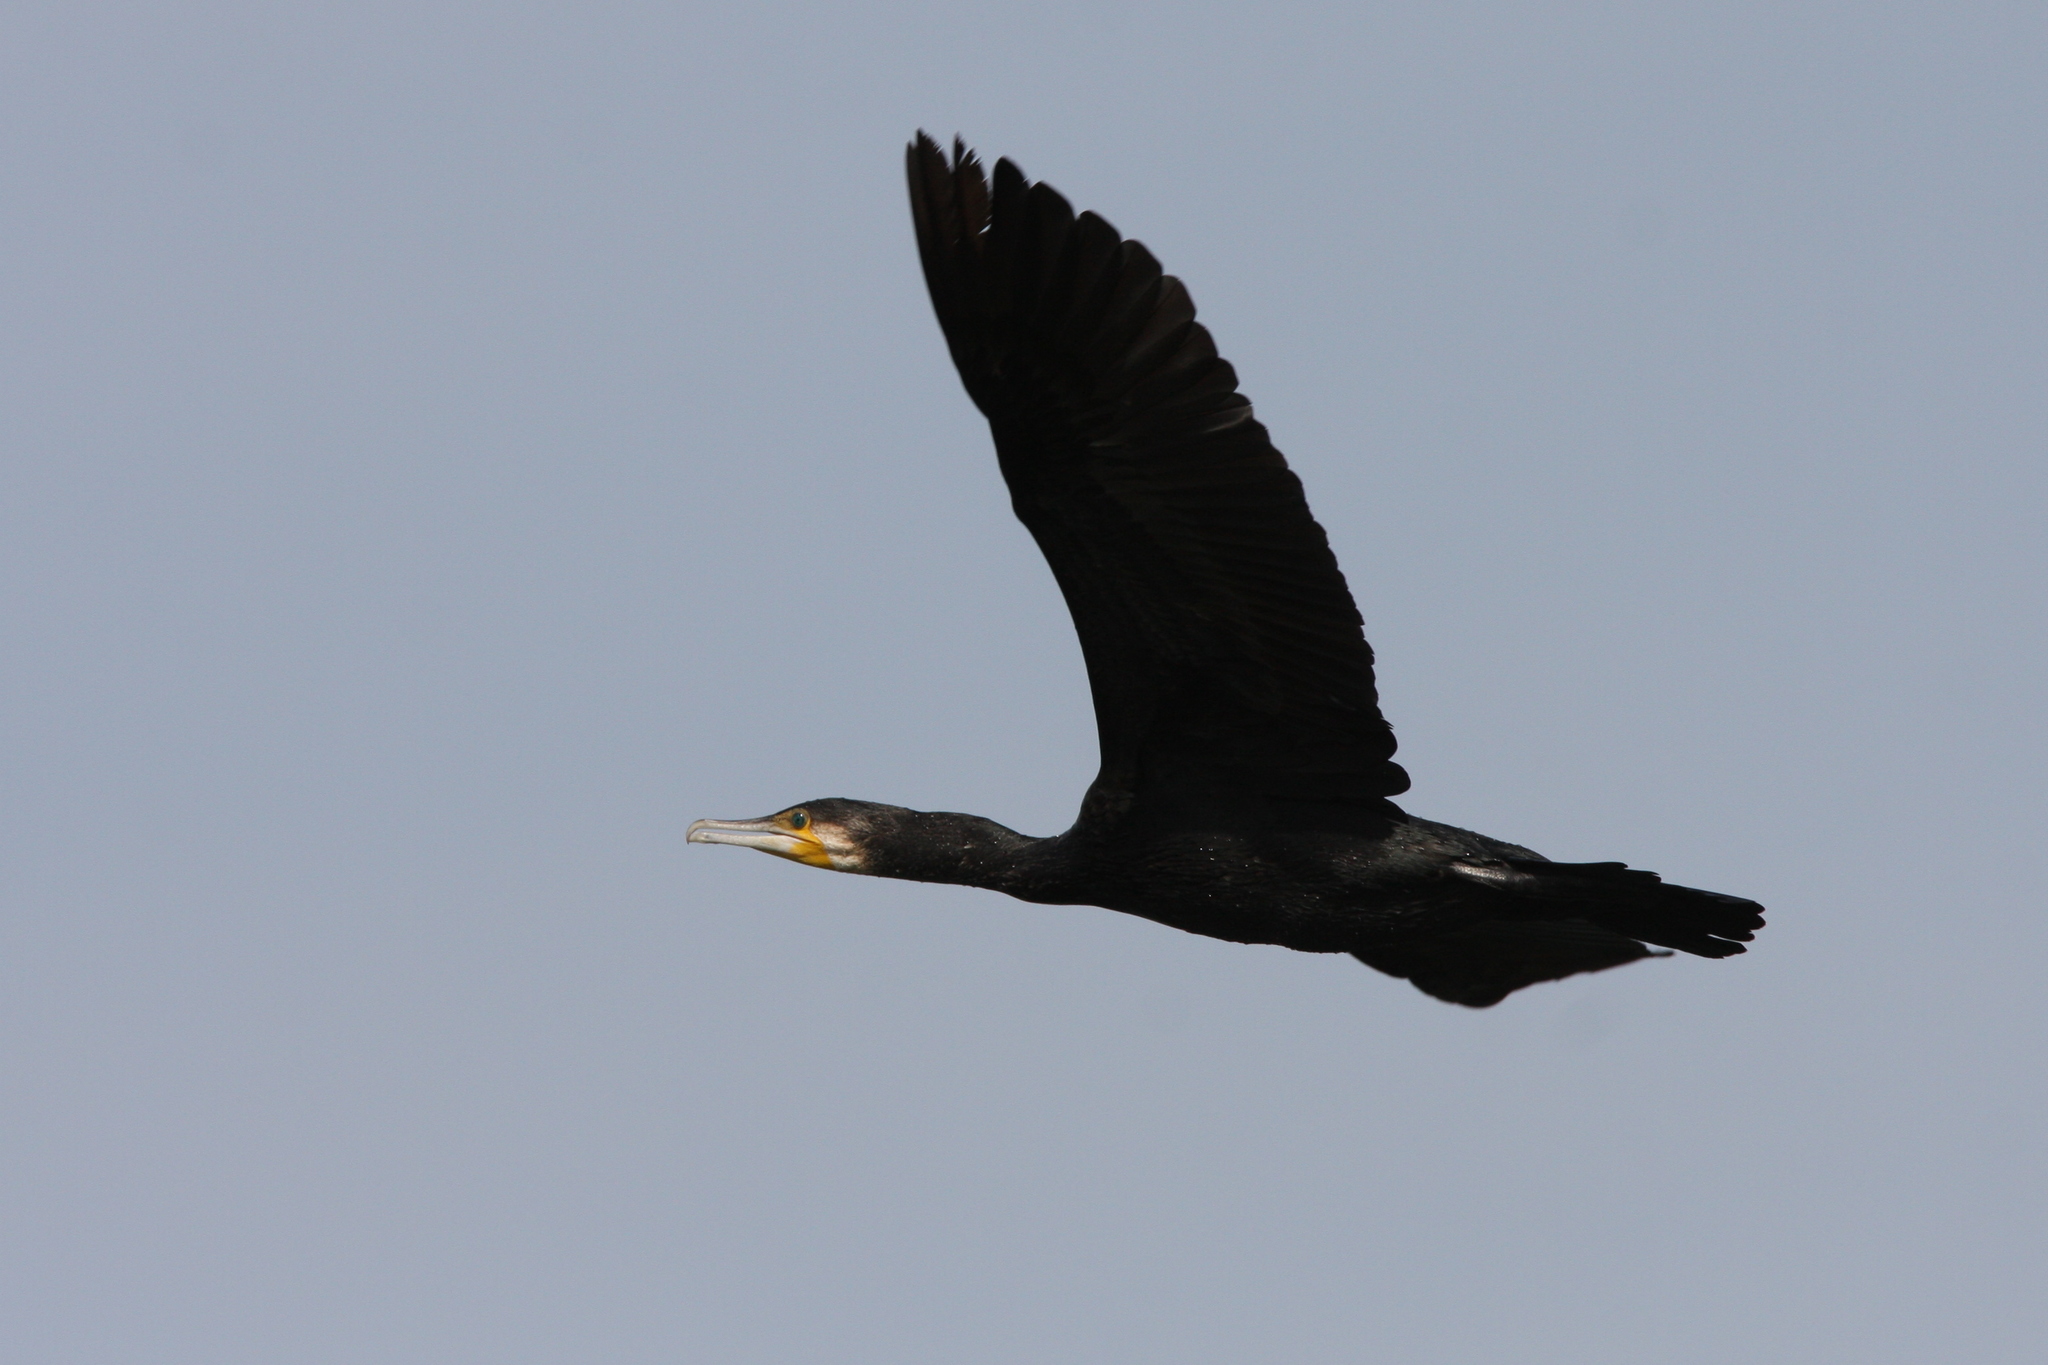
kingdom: Animalia
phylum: Chordata
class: Aves
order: Suliformes
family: Phalacrocoracidae
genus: Phalacrocorax
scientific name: Phalacrocorax carbo
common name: Great cormorant
